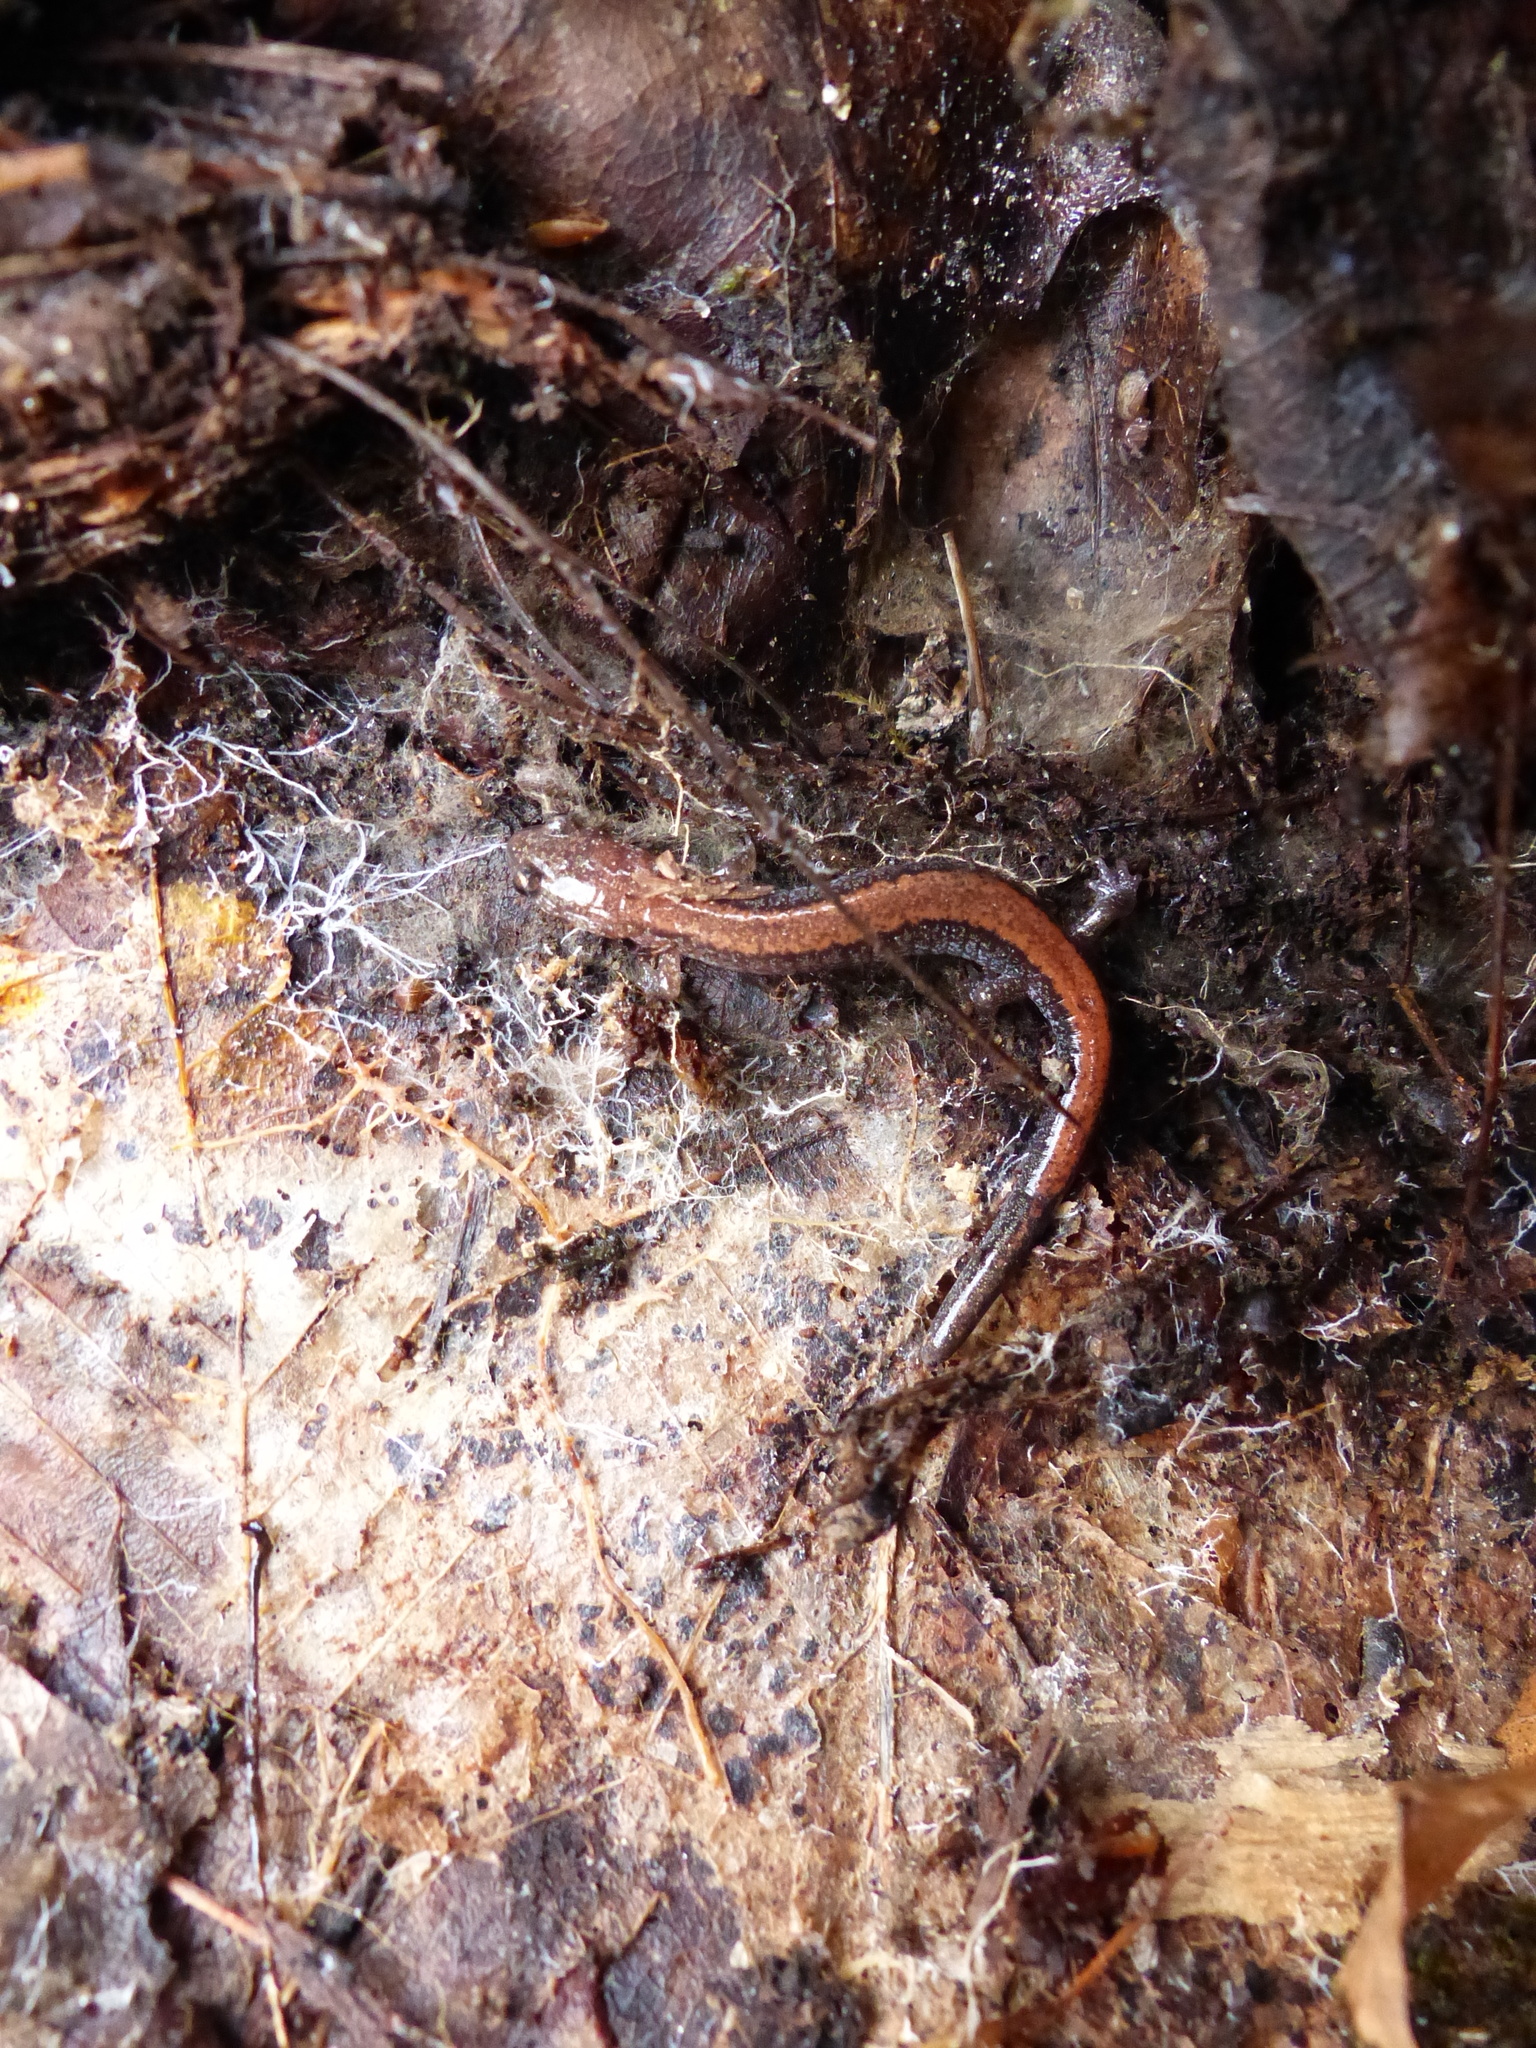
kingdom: Animalia
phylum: Chordata
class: Amphibia
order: Caudata
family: Plethodontidae
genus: Plethodon
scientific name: Plethodon cinereus
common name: Redback salamander
